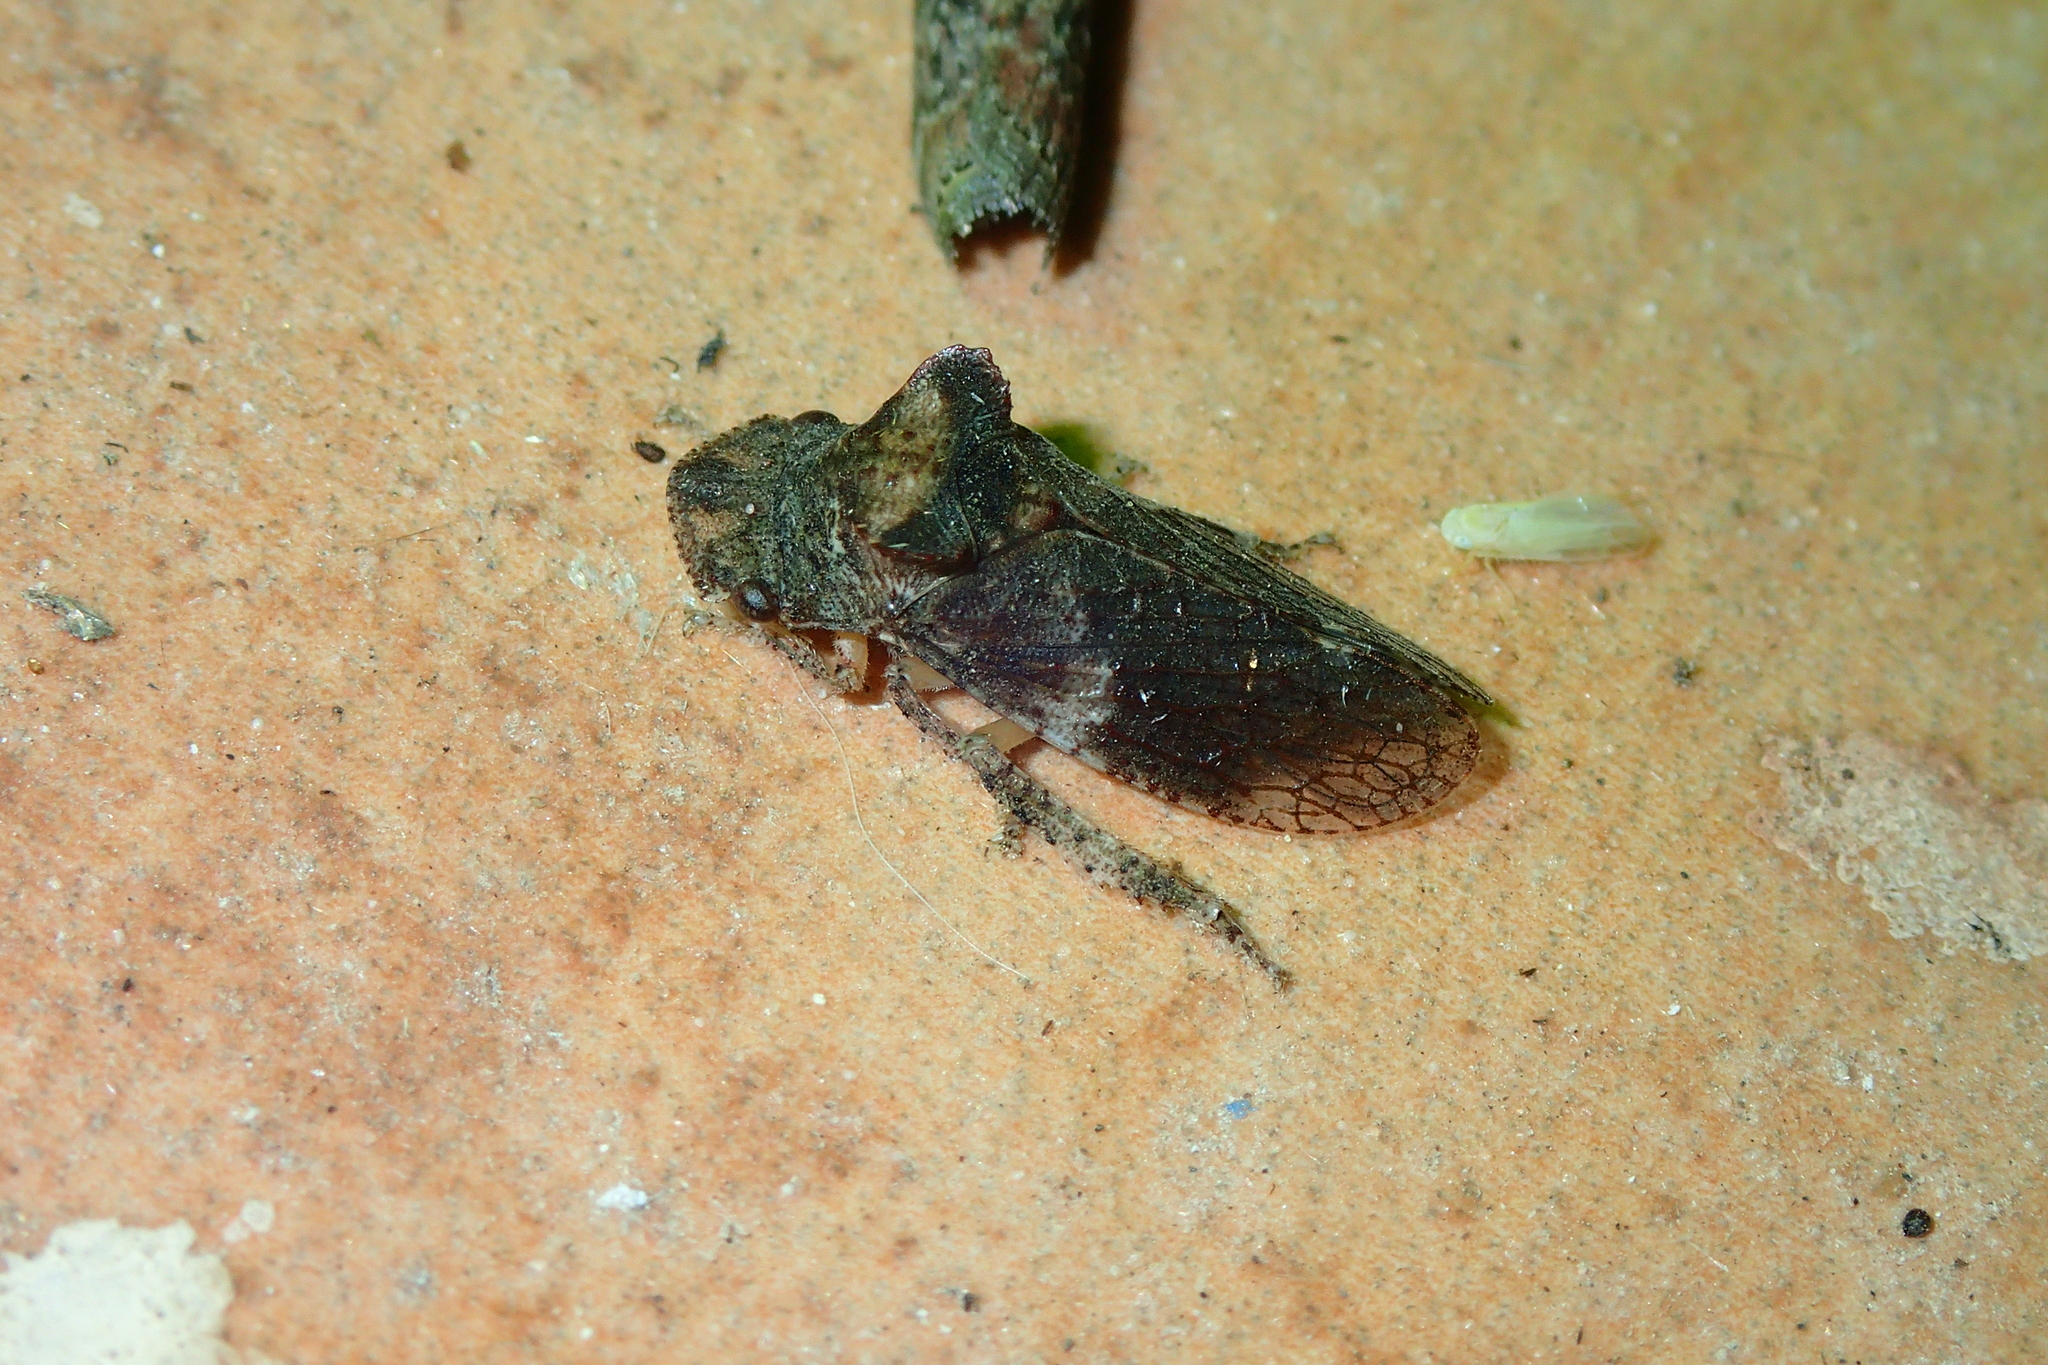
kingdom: Animalia
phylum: Arthropoda
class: Insecta
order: Hemiptera
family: Cicadellidae
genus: Ledra
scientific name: Ledra aurita
